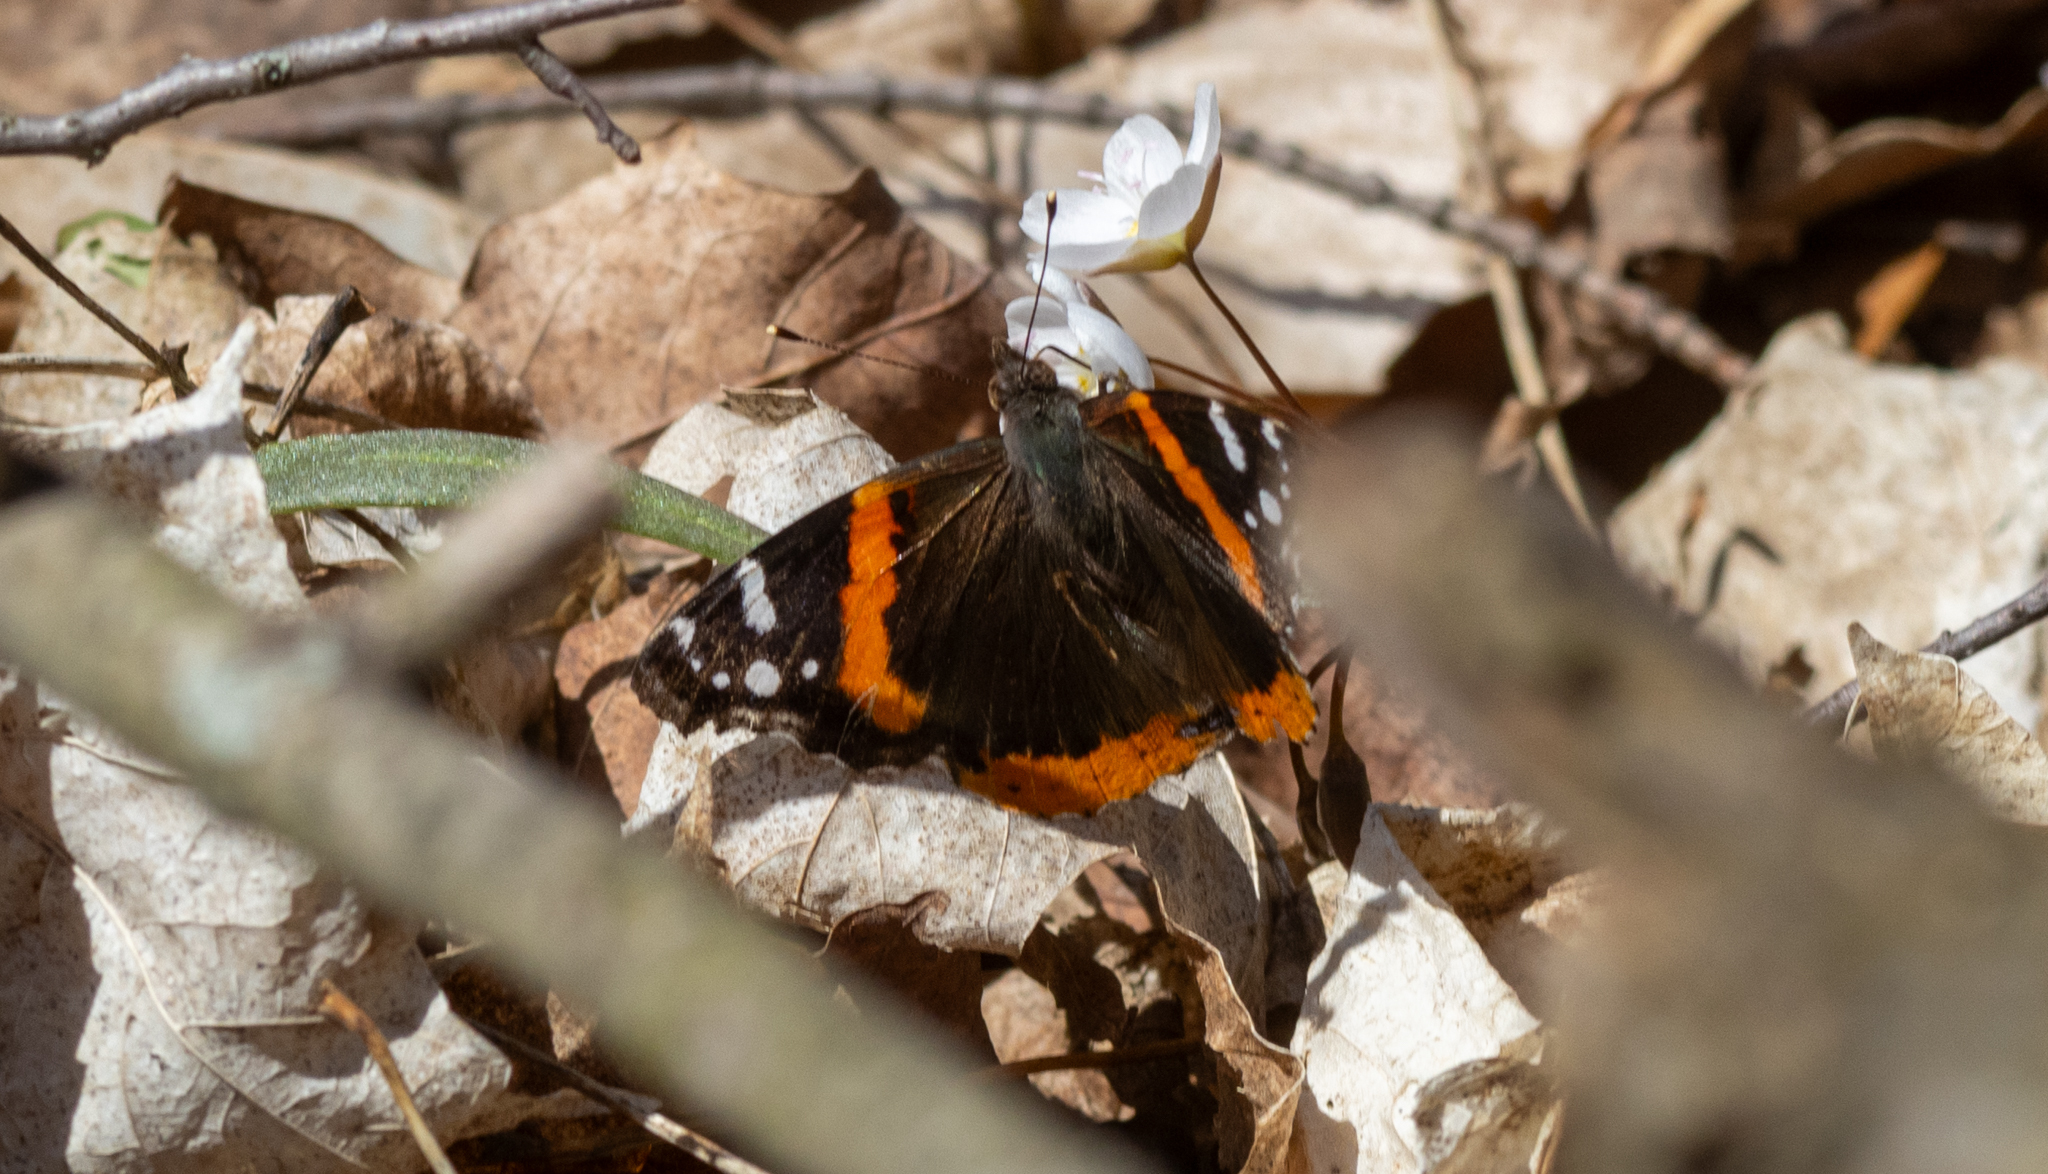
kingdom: Animalia
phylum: Arthropoda
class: Insecta
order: Lepidoptera
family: Nymphalidae
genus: Vanessa
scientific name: Vanessa atalanta
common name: Red admiral
